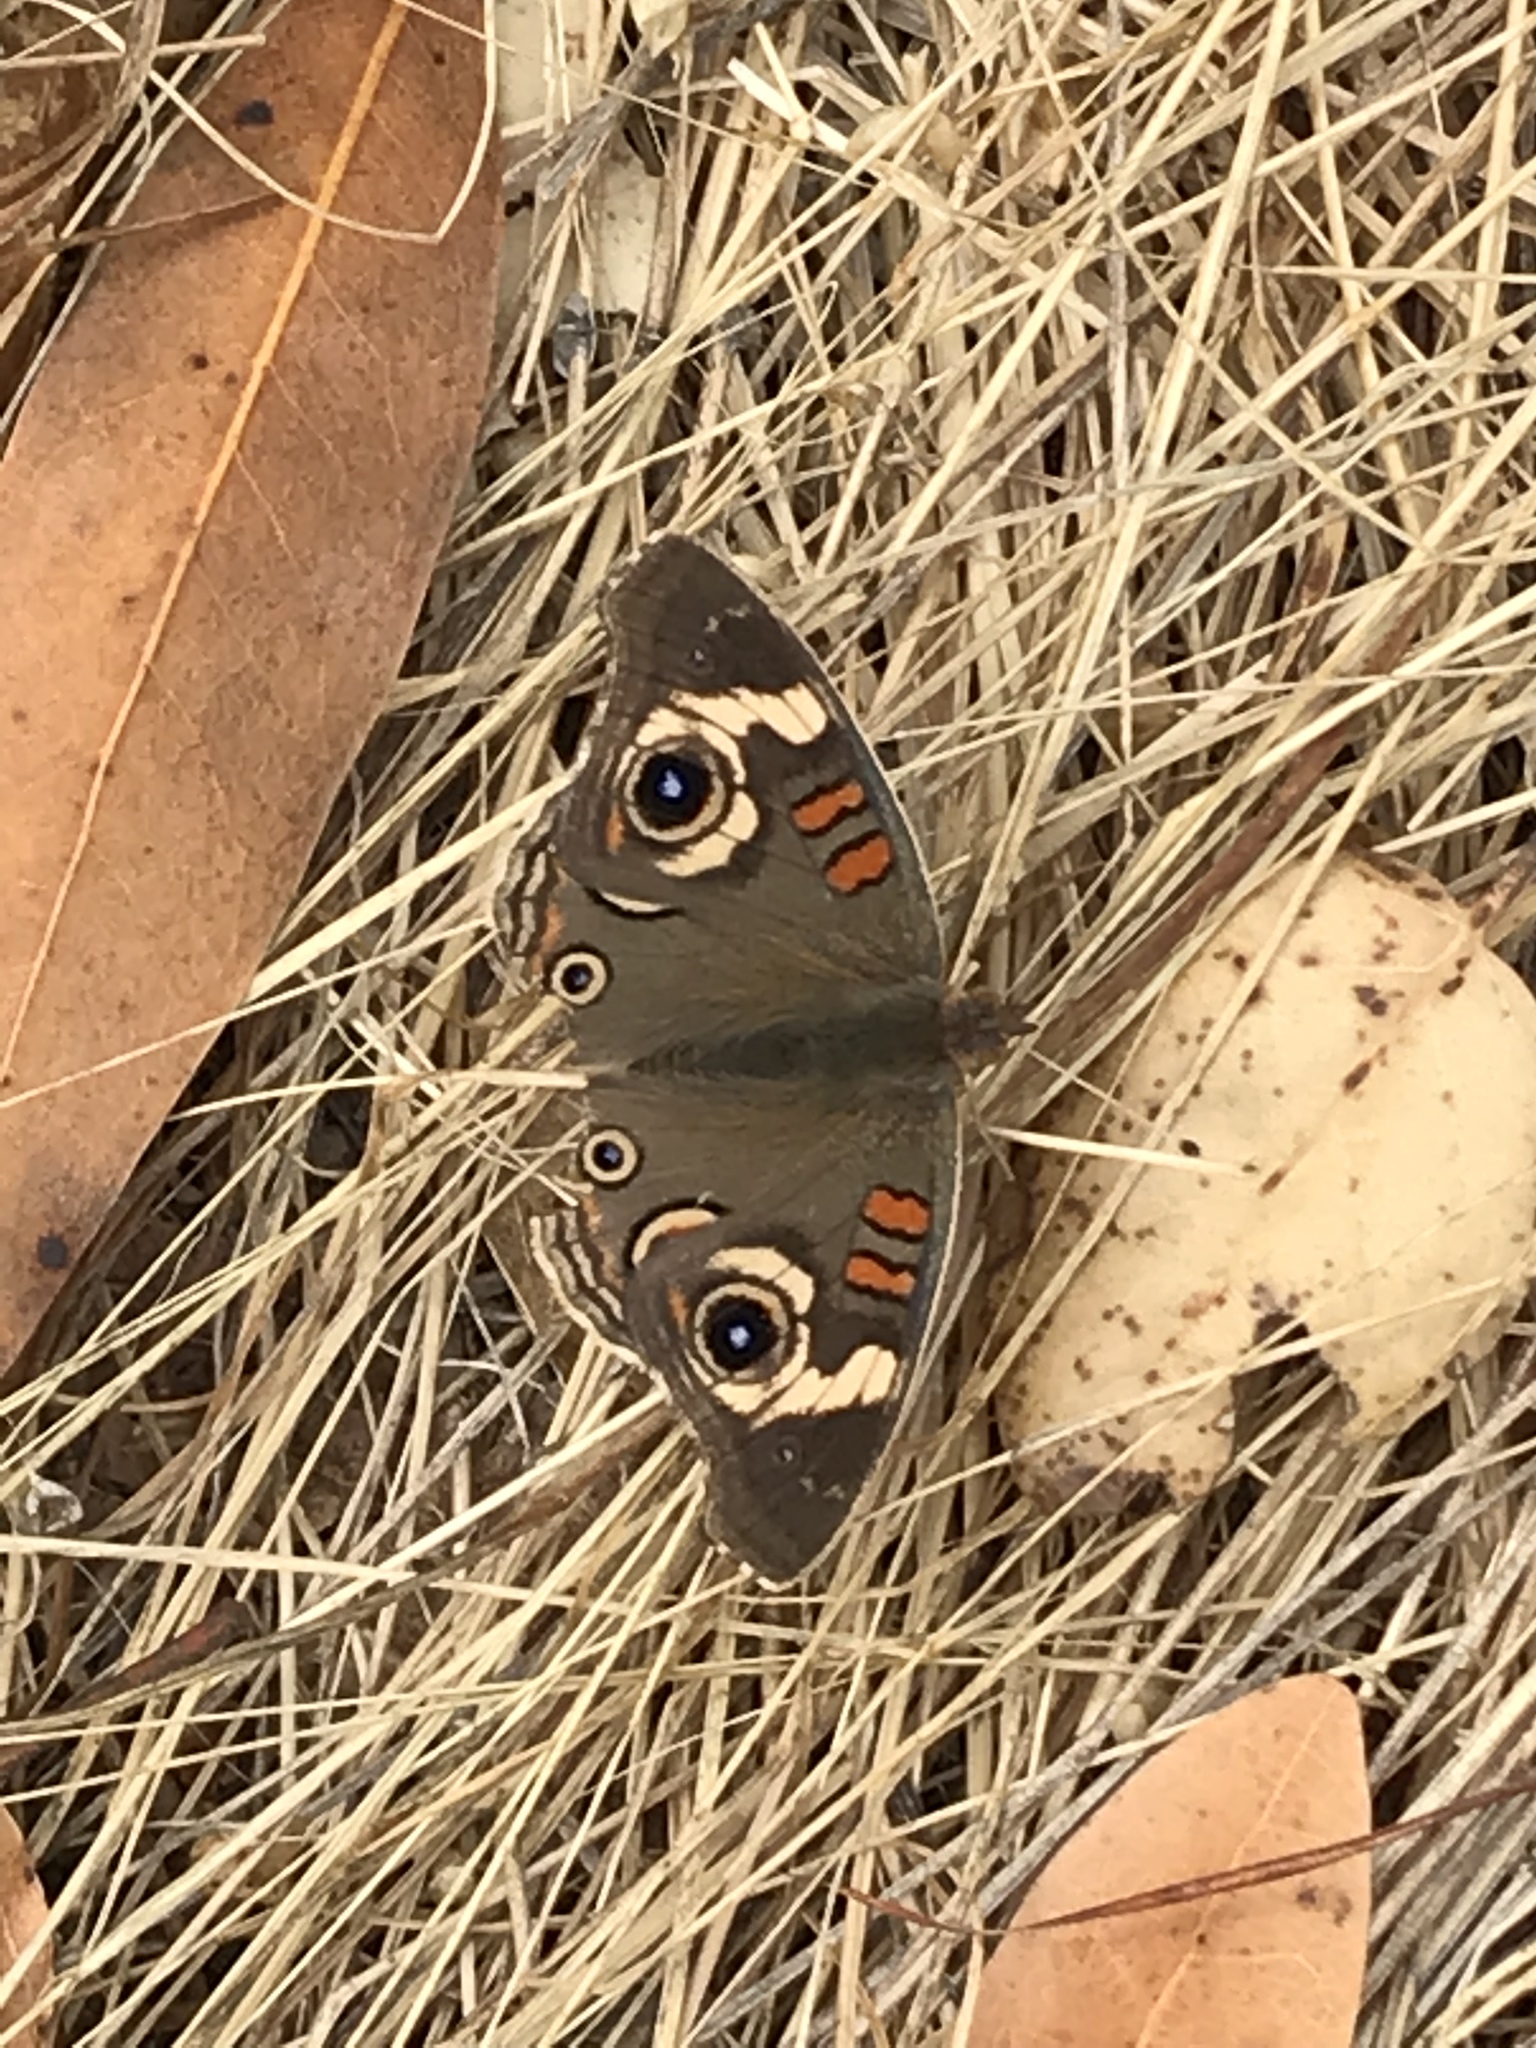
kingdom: Animalia
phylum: Arthropoda
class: Insecta
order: Lepidoptera
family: Nymphalidae
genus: Junonia
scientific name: Junonia grisea
